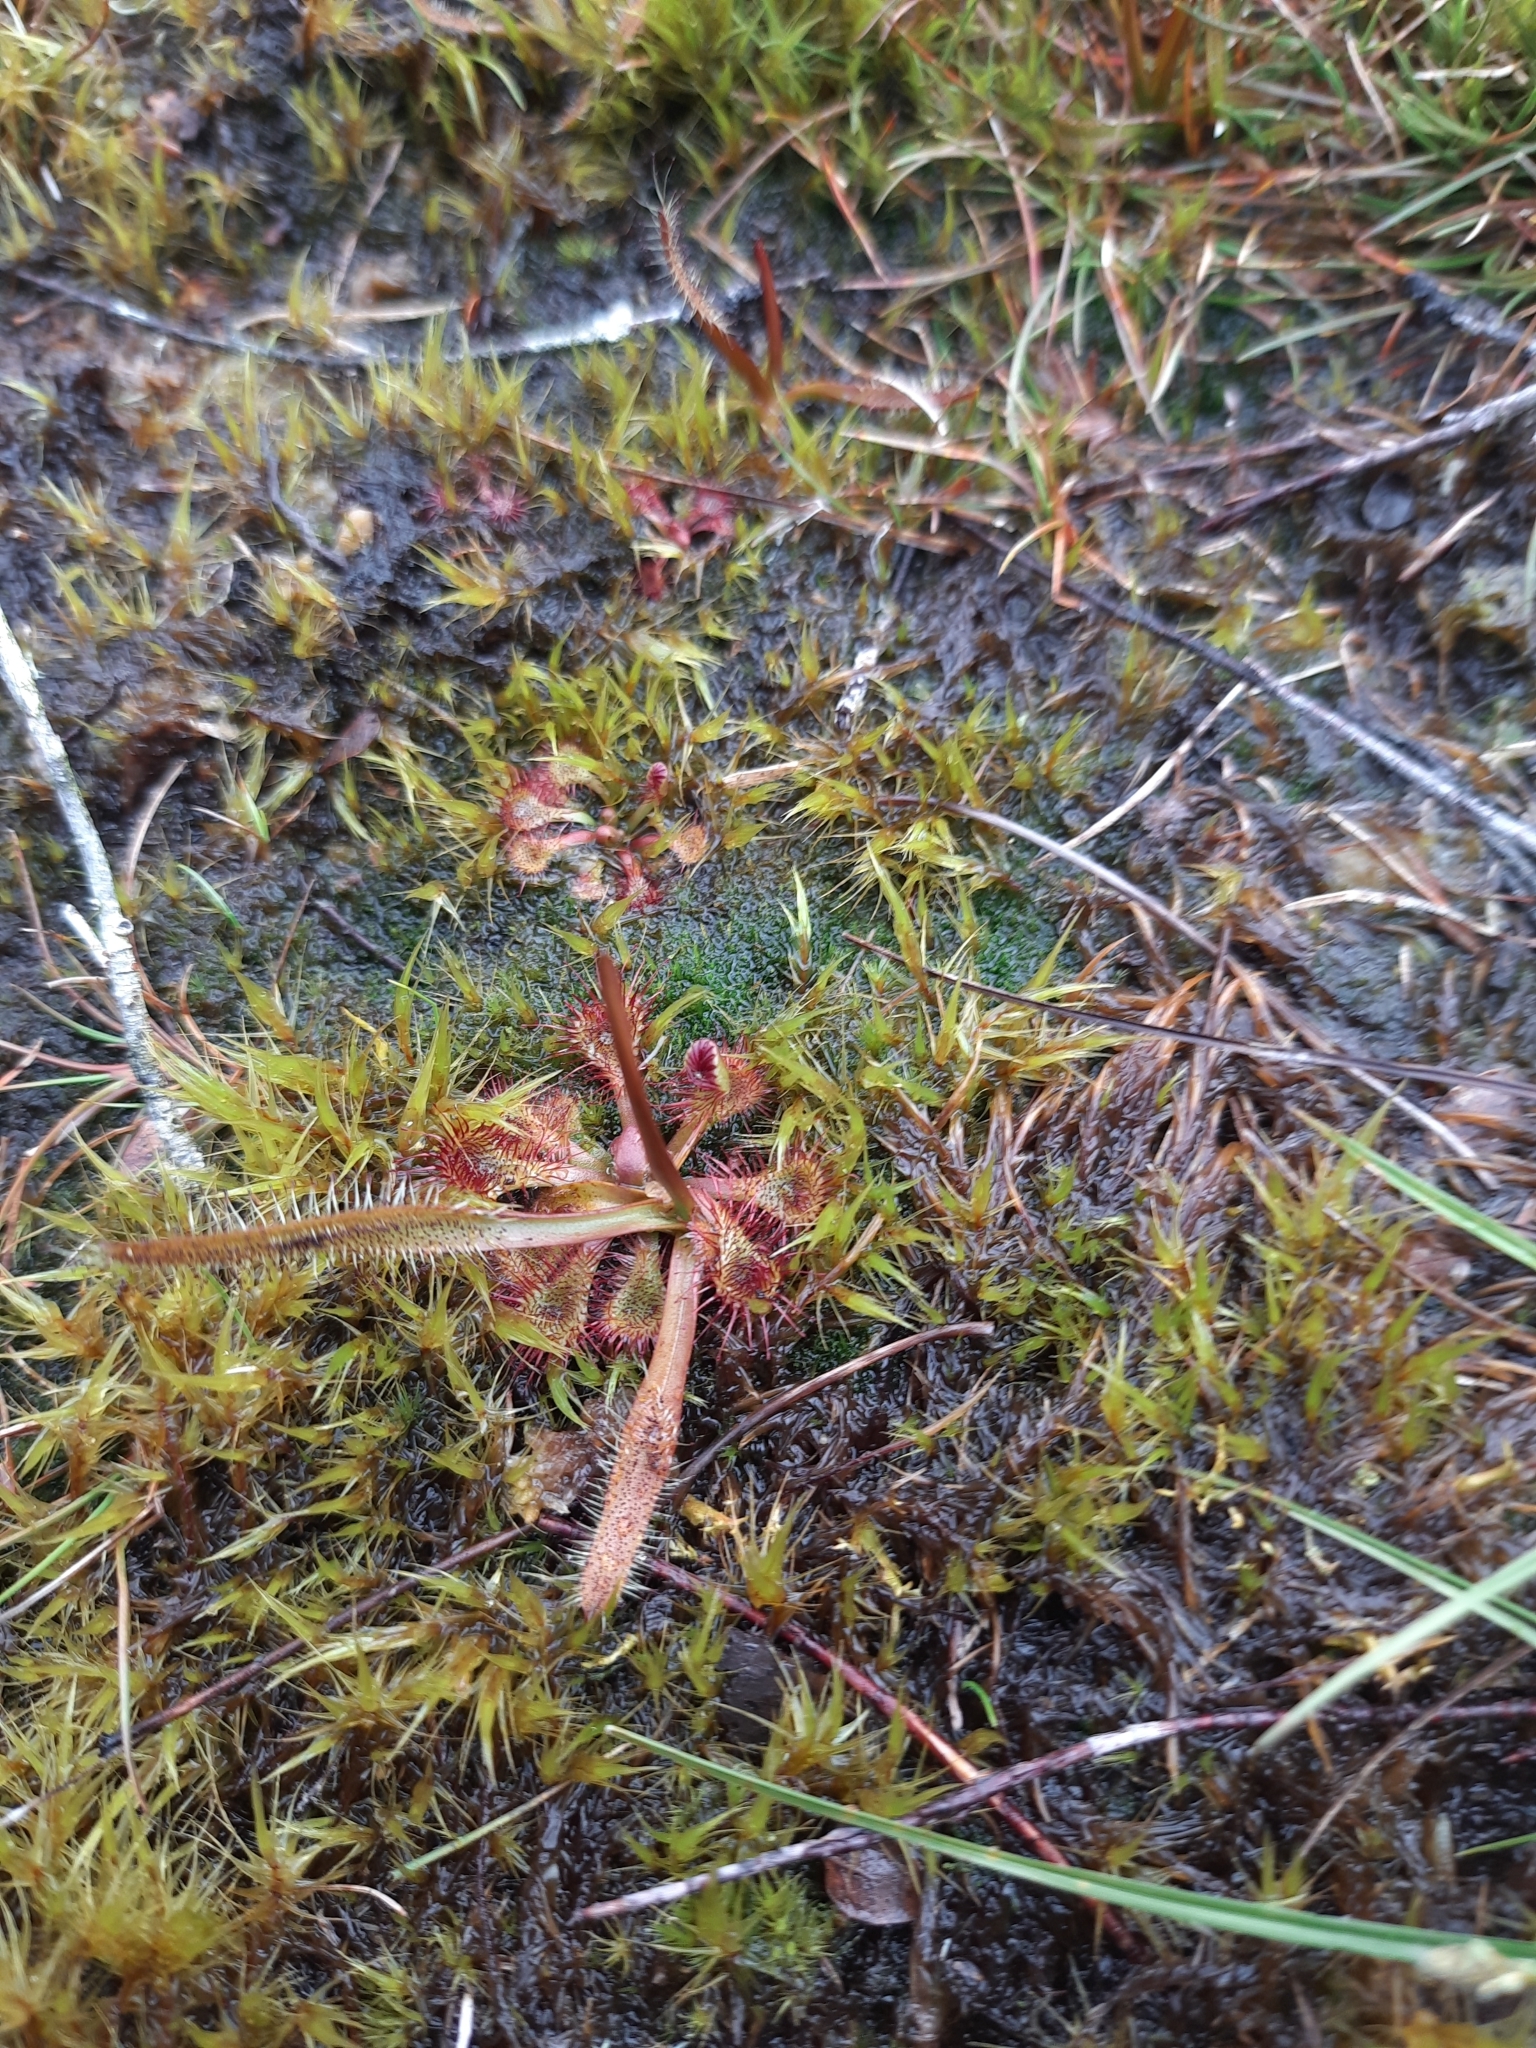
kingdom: Plantae
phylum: Tracheophyta
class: Magnoliopsida
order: Caryophyllales
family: Droseraceae
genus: Drosera
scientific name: Drosera arcturi
